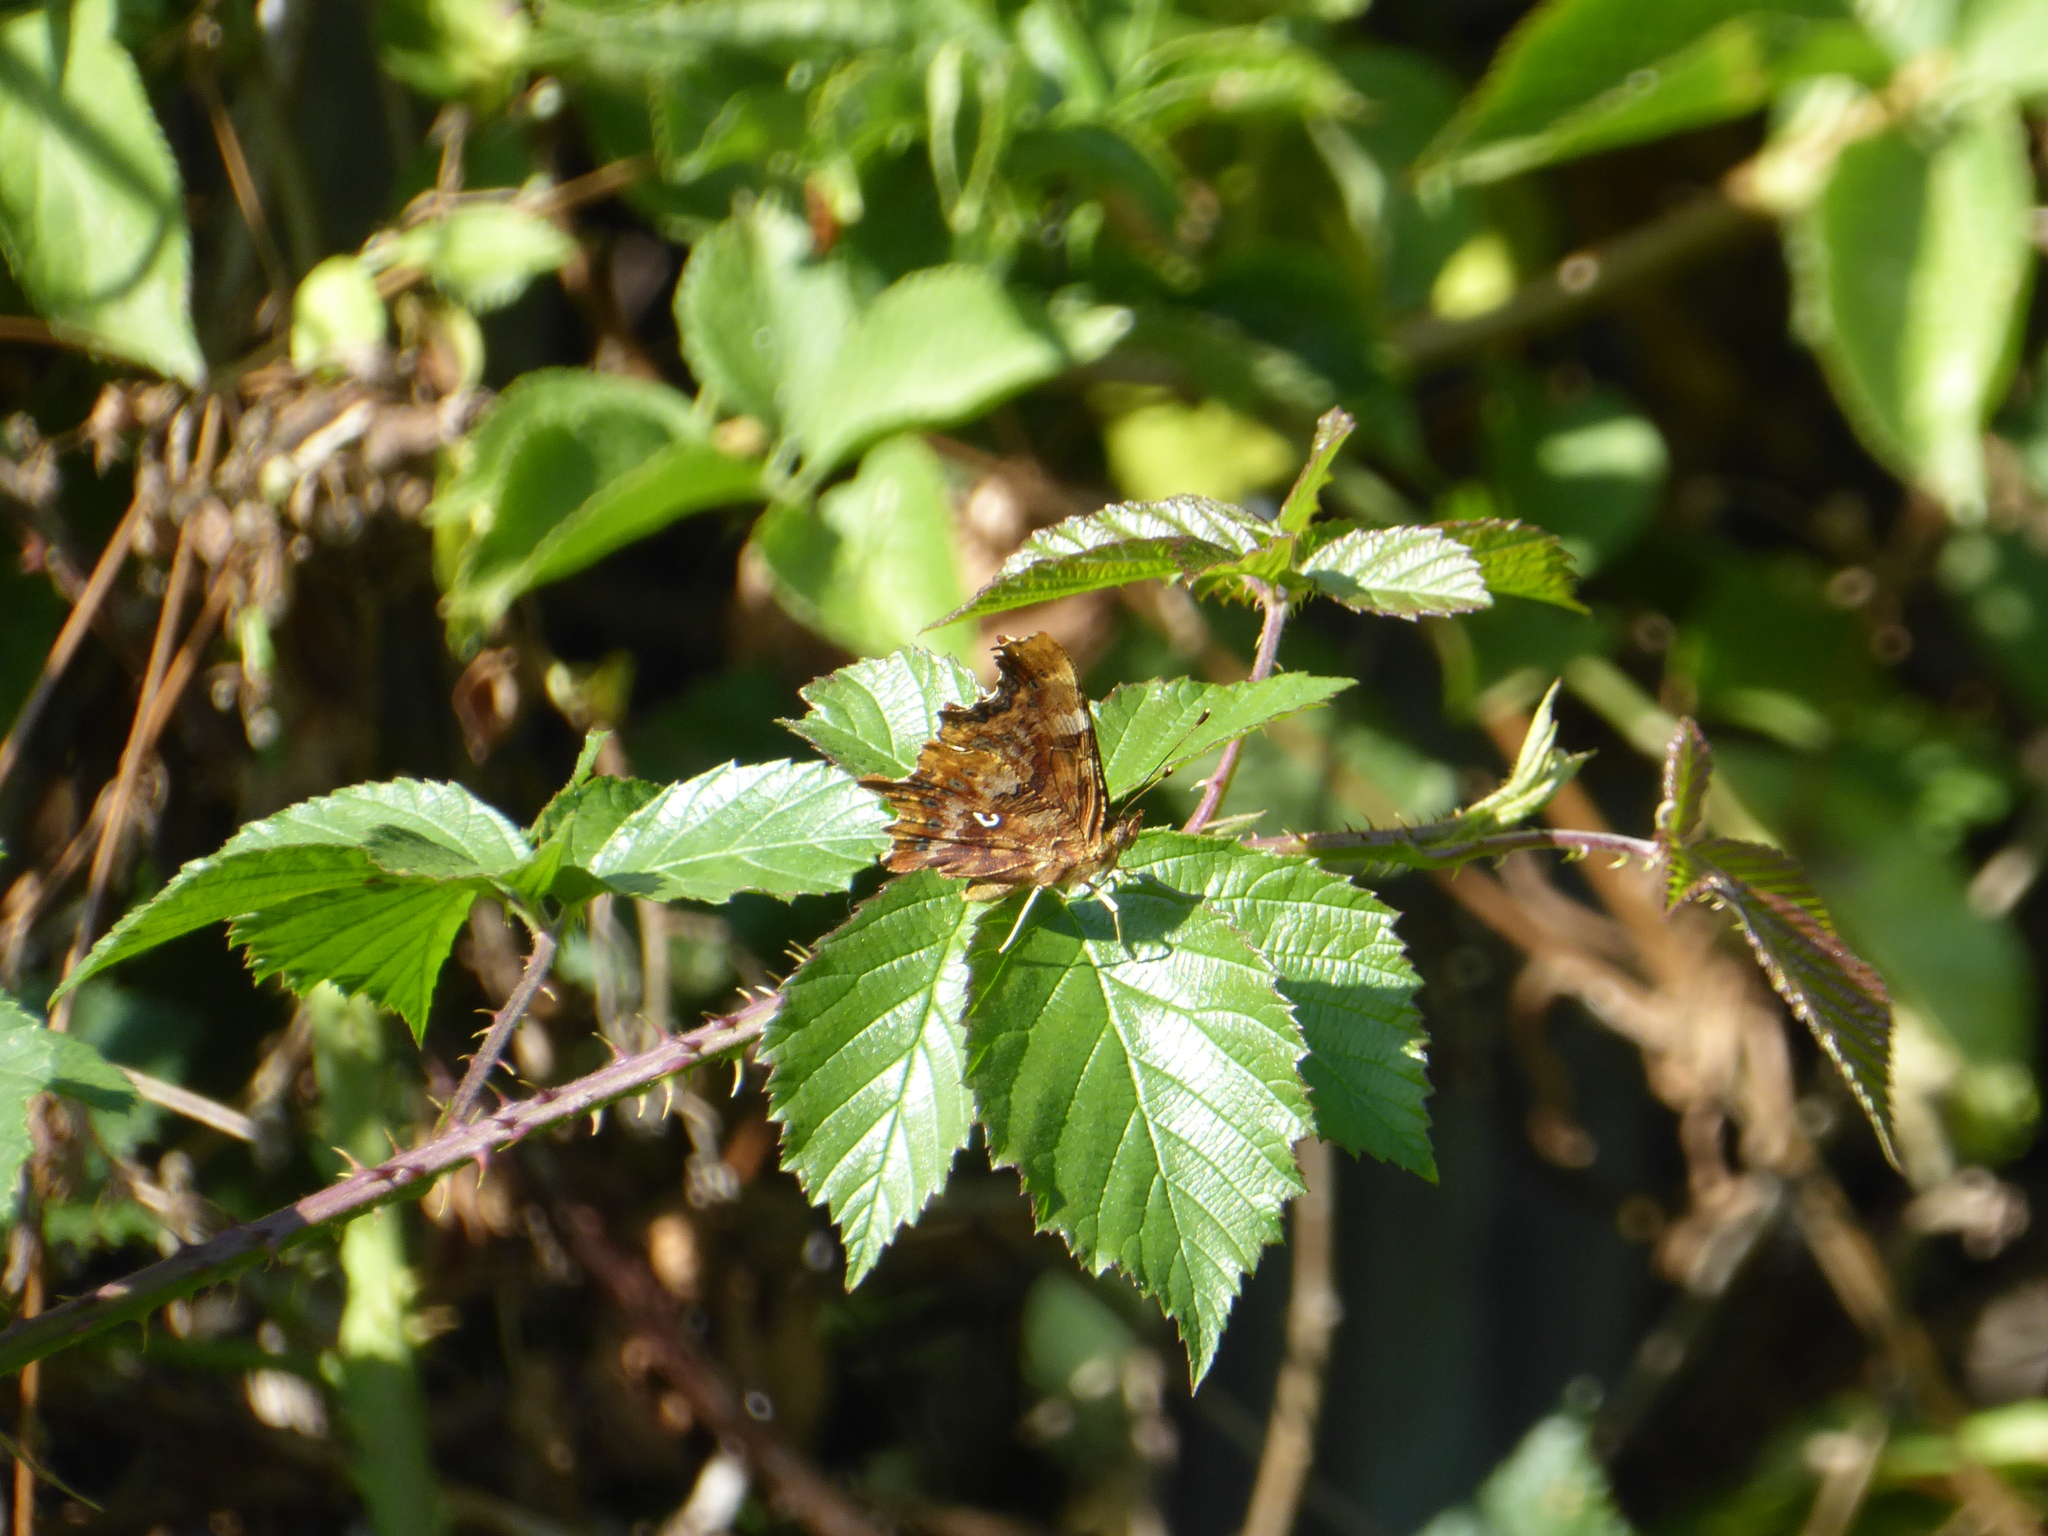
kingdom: Animalia
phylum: Arthropoda
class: Insecta
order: Lepidoptera
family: Nymphalidae
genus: Polygonia
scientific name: Polygonia c-album
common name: Comma
